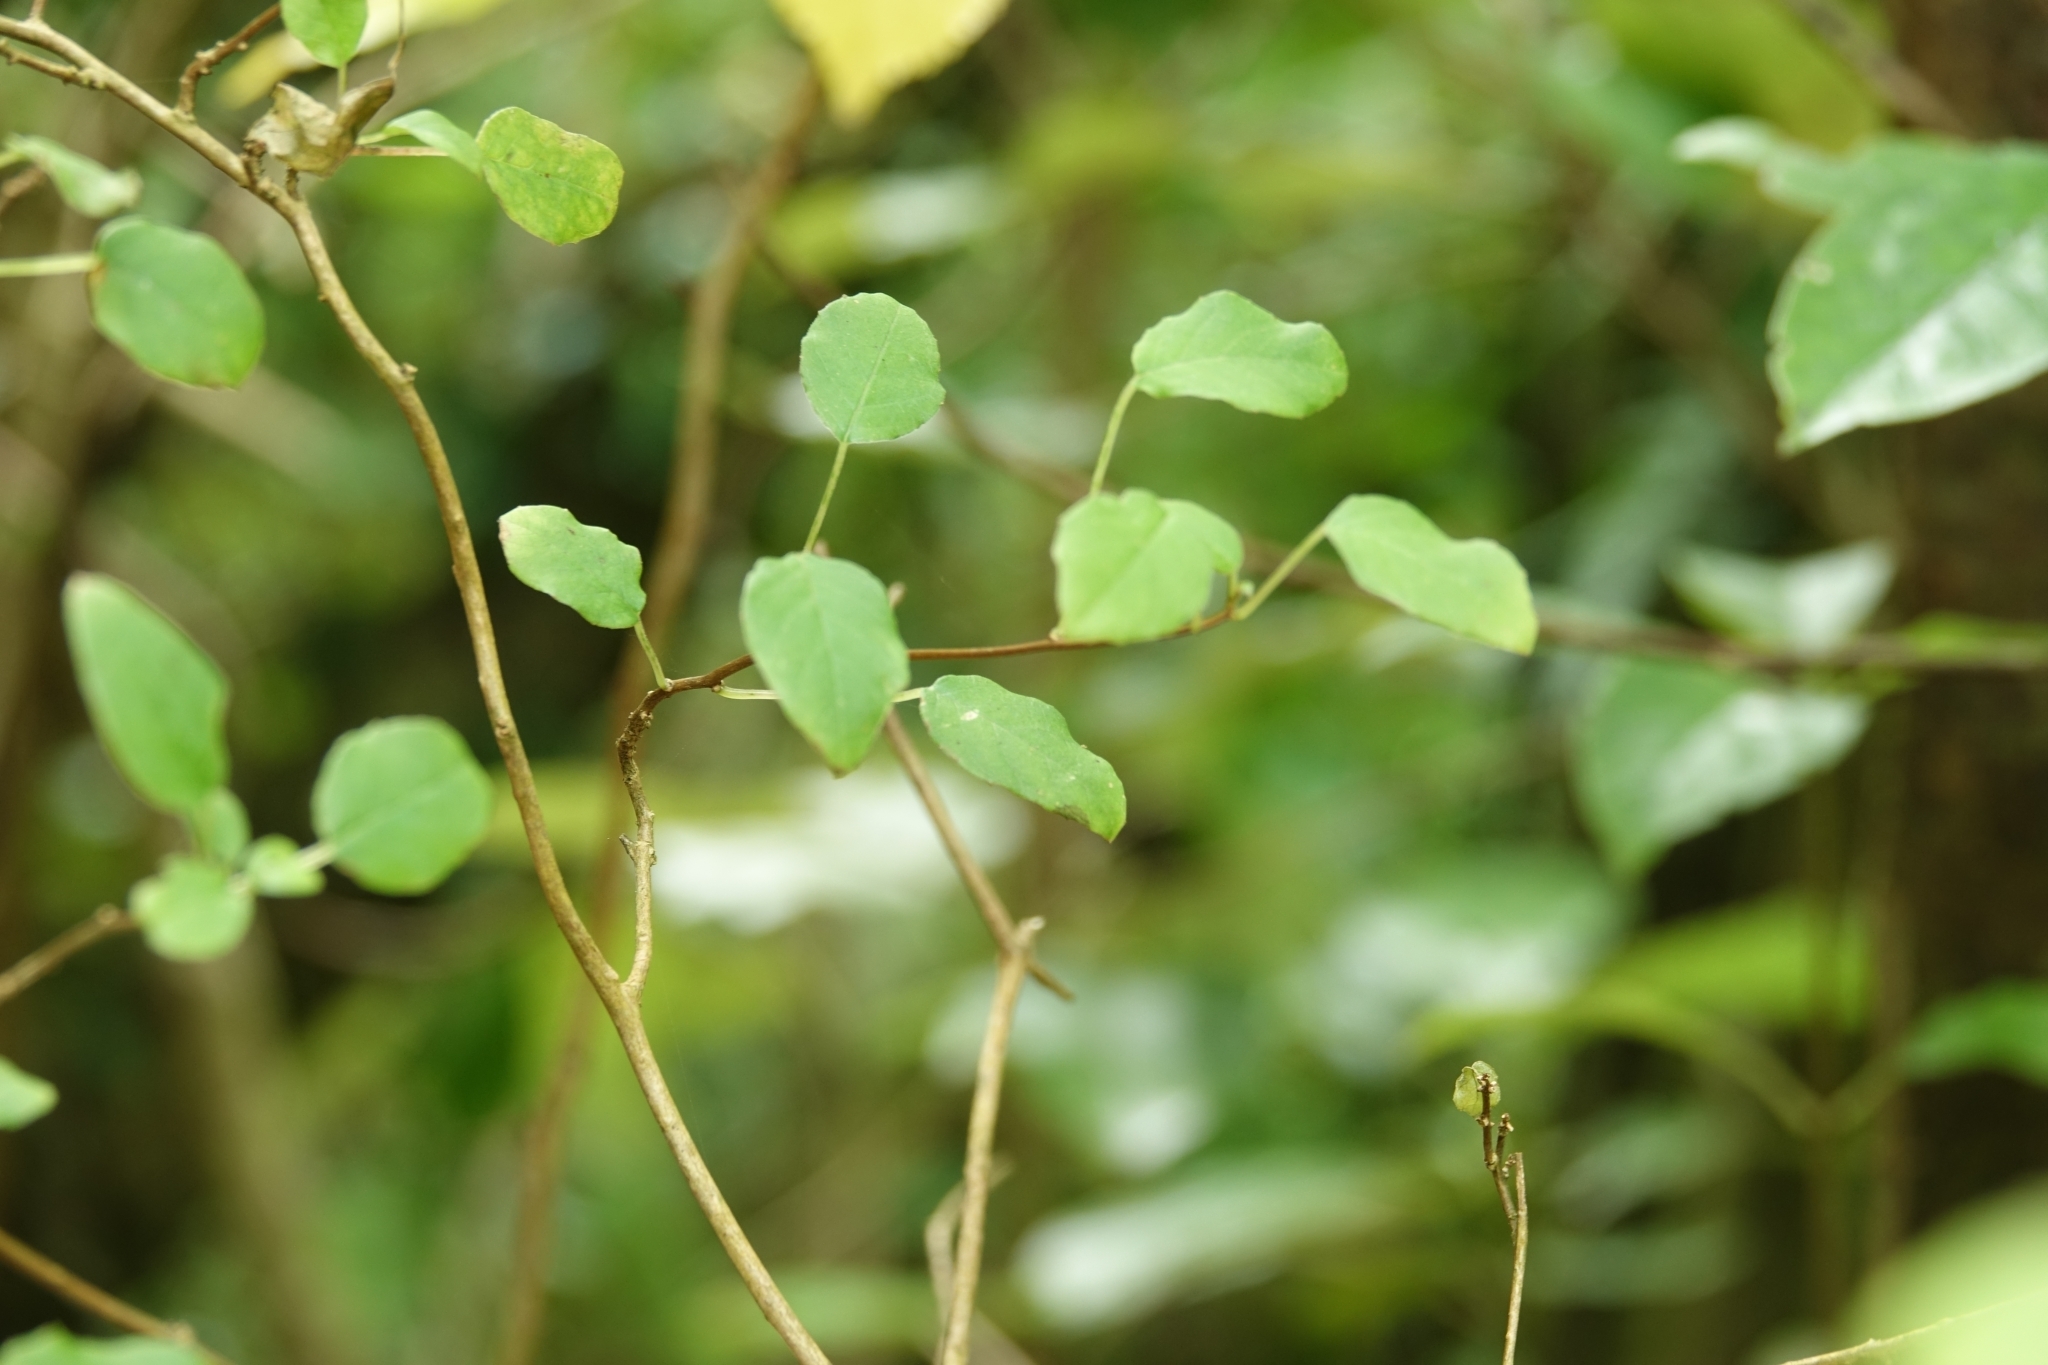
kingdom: Plantae
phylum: Tracheophyta
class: Magnoliopsida
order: Myrtales
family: Onagraceae
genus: Fuchsia
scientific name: Fuchsia perscandens
